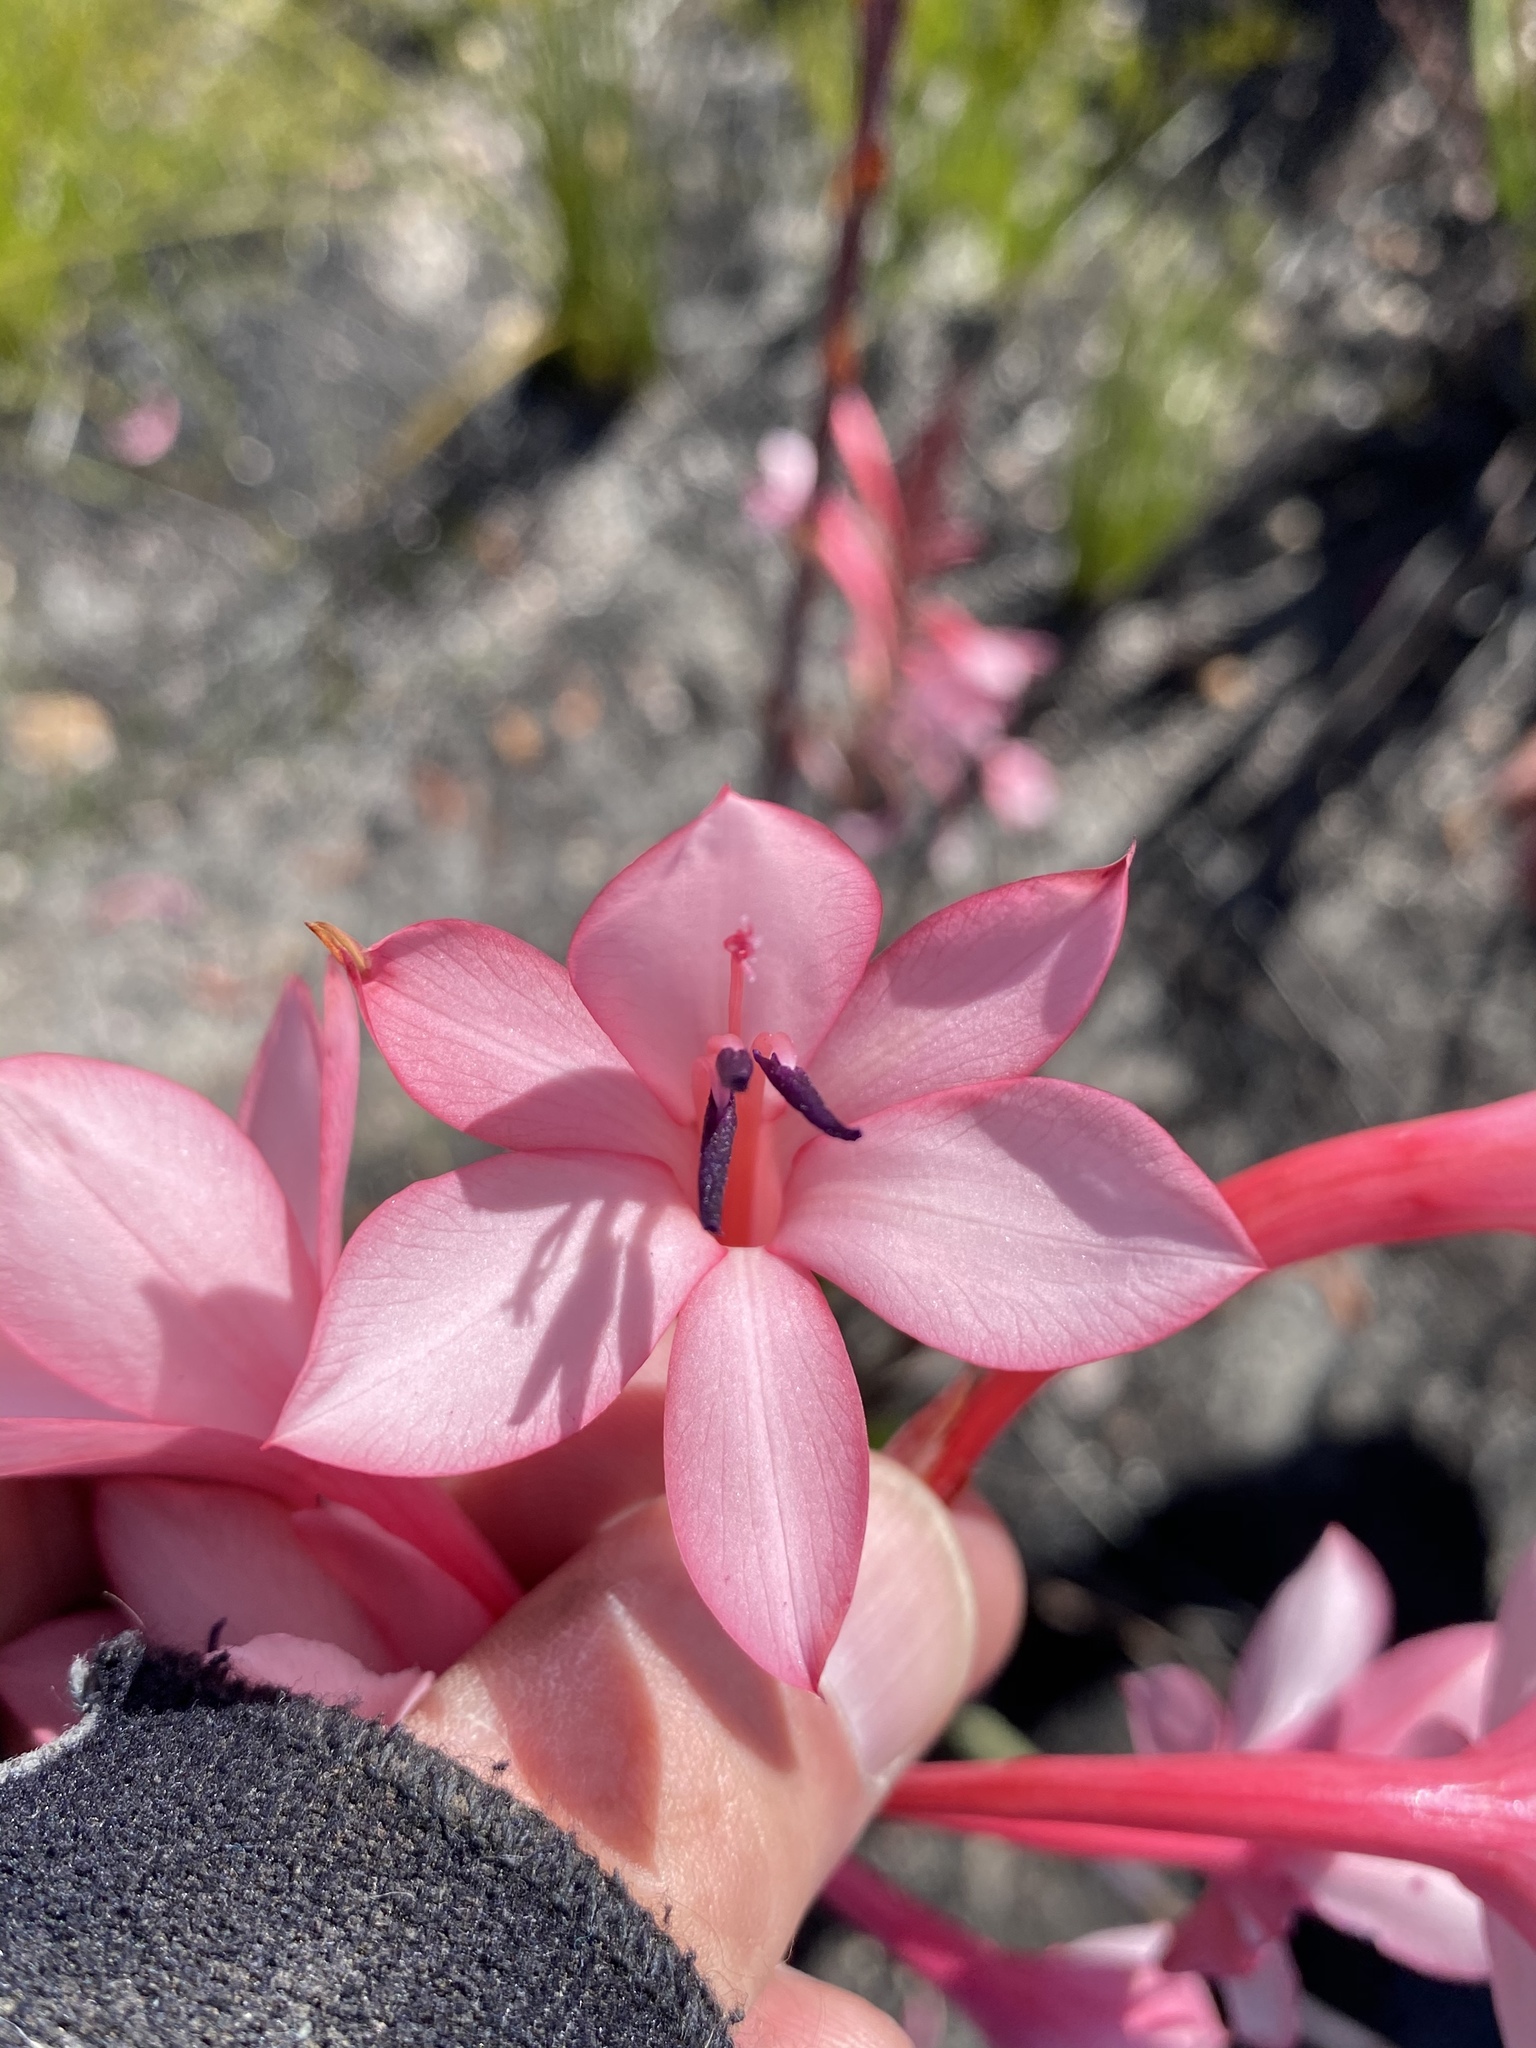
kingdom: Plantae
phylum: Tracheophyta
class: Liliopsida
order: Asparagales
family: Iridaceae
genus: Watsonia
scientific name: Watsonia fourcadei
